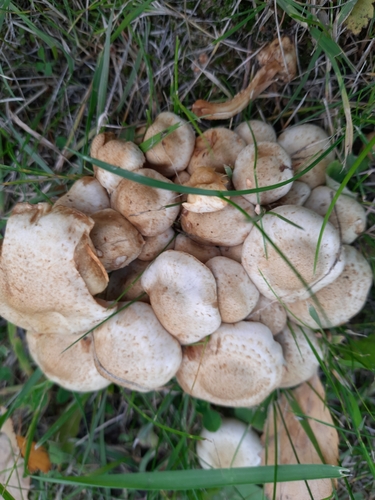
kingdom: Fungi
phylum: Basidiomycota
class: Agaricomycetes
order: Agaricales
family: Strophariaceae
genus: Pholiota
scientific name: Pholiota gummosa
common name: Sticky scalycap
